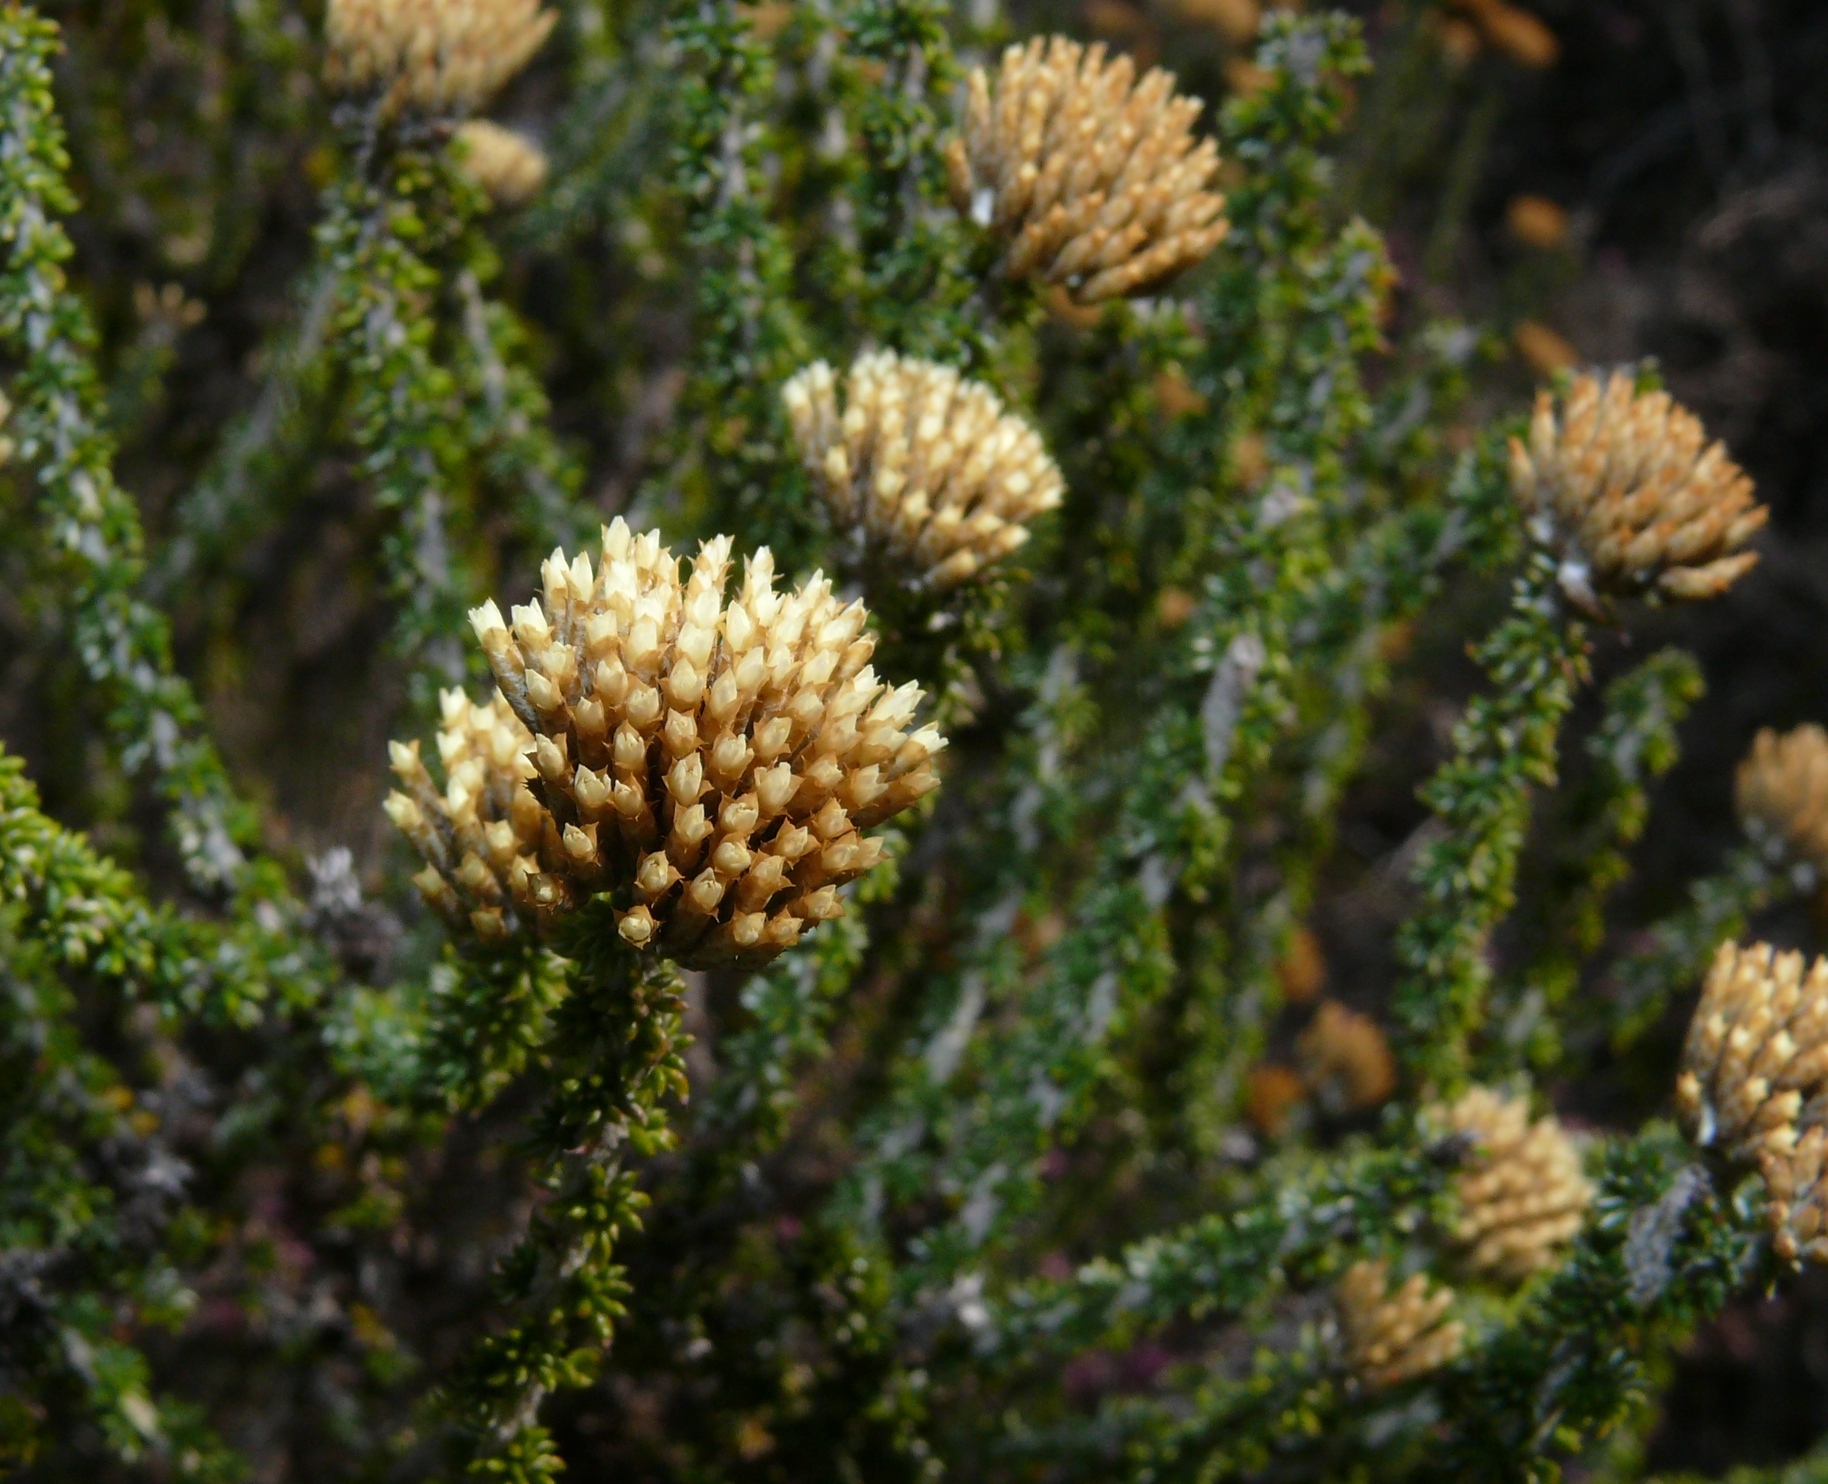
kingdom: Plantae
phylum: Tracheophyta
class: Magnoliopsida
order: Asterales
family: Asteraceae
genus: Metalasia
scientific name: Metalasia luteola
